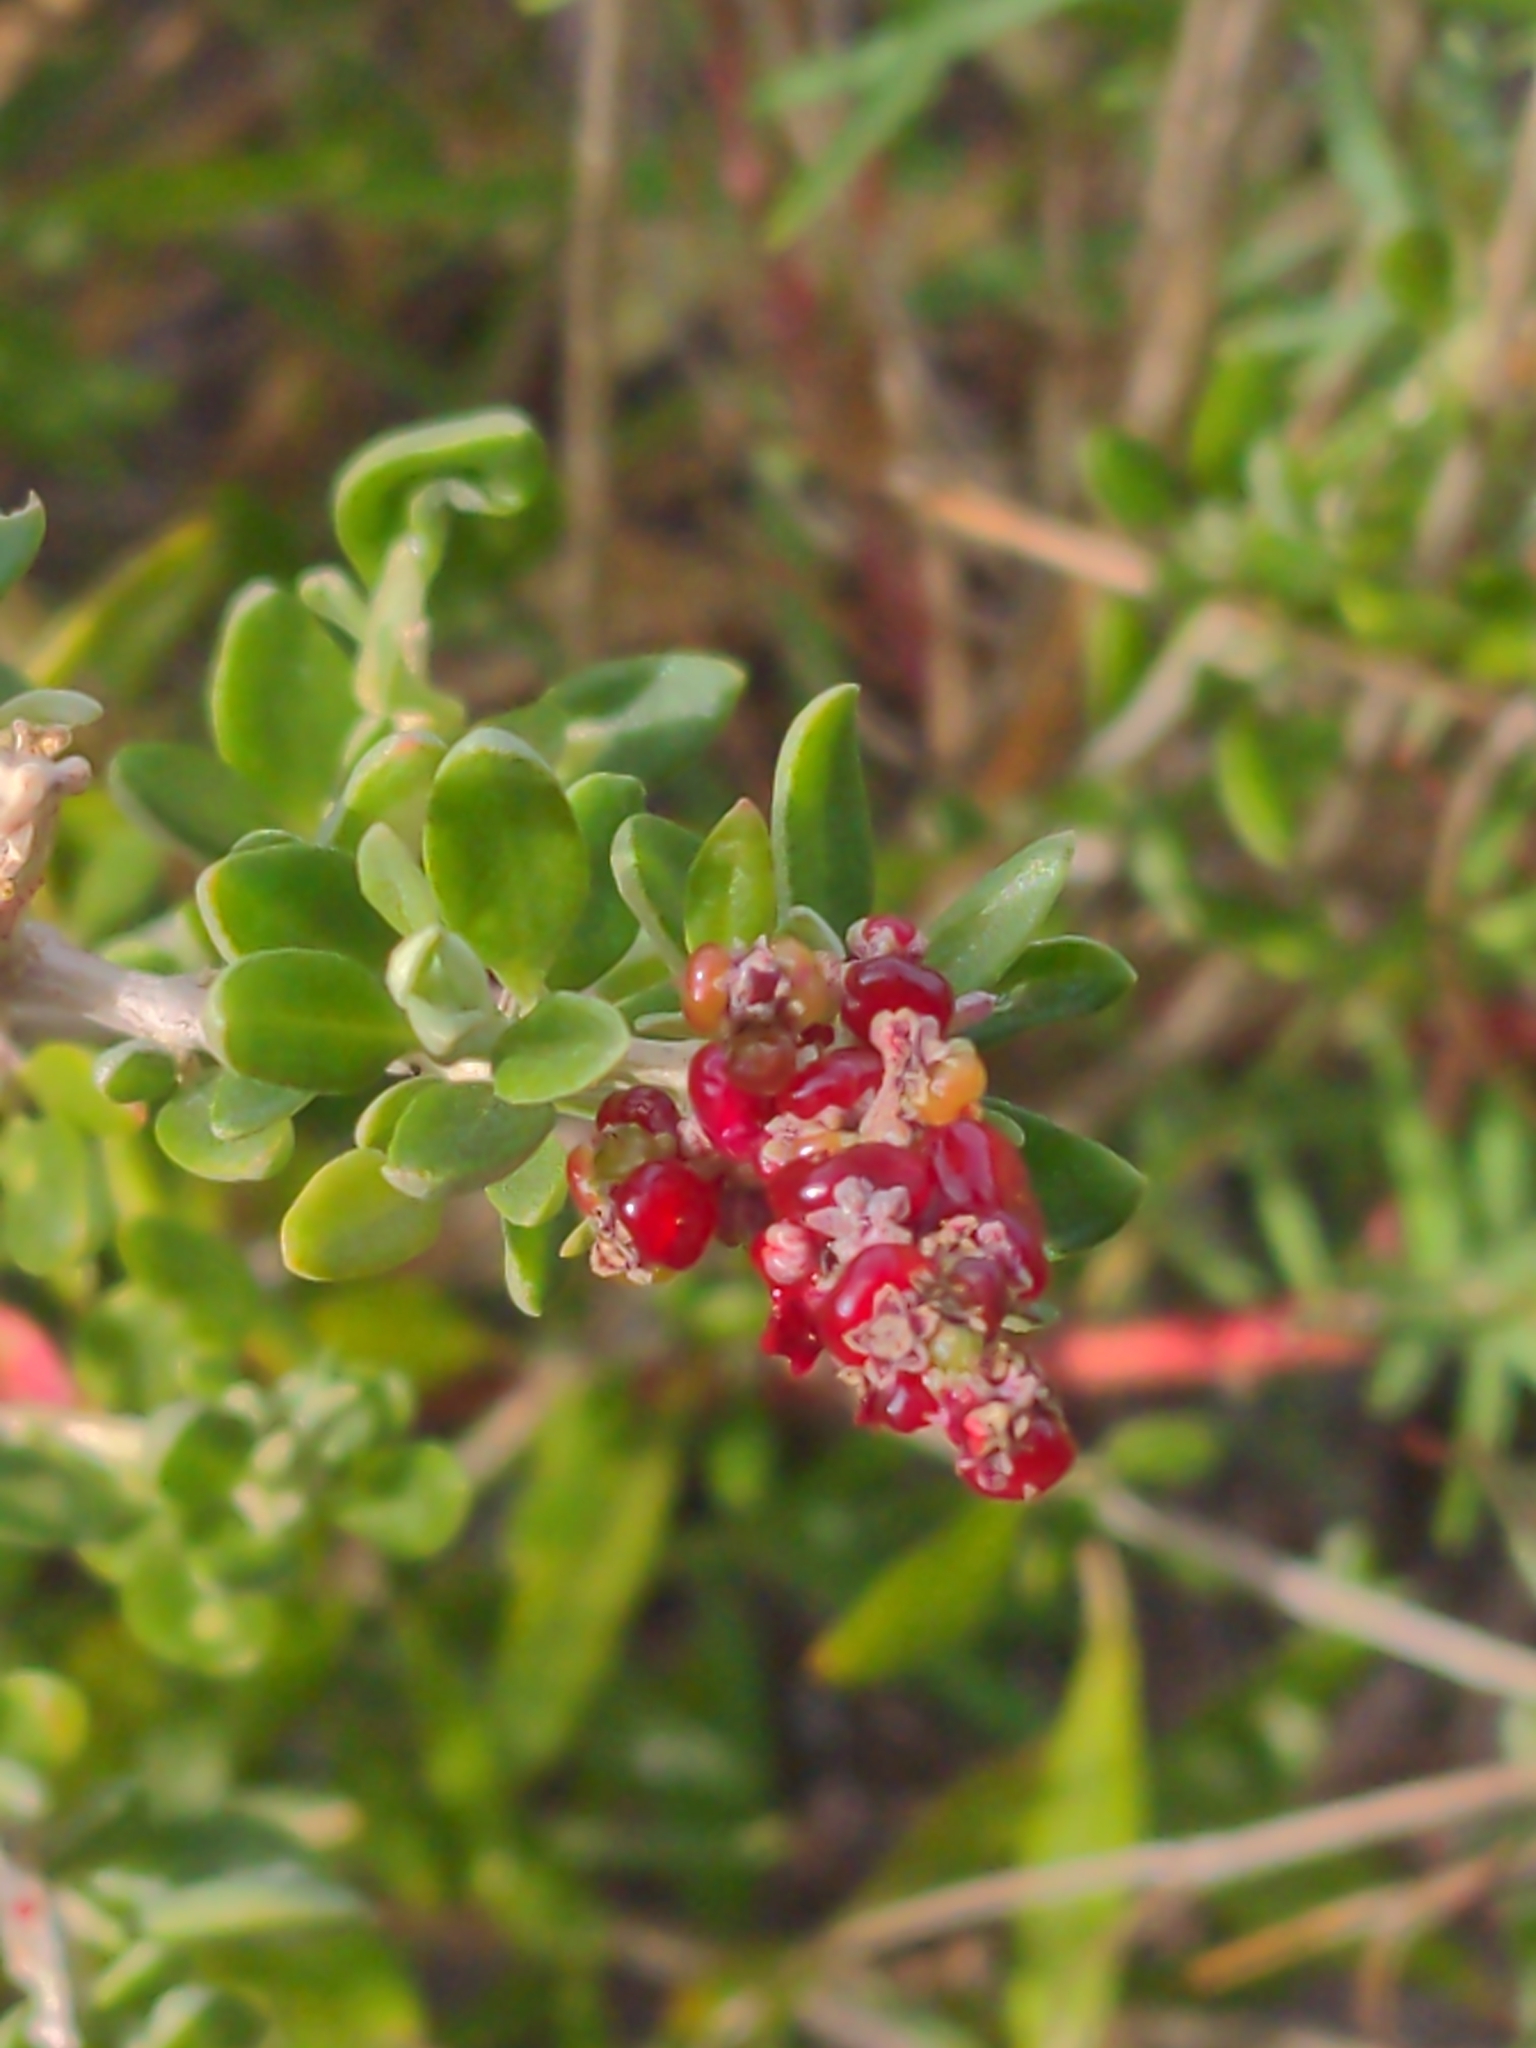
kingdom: Plantae
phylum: Tracheophyta
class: Magnoliopsida
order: Caryophyllales
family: Amaranthaceae
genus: Chenopodium
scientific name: Chenopodium candolleanum
